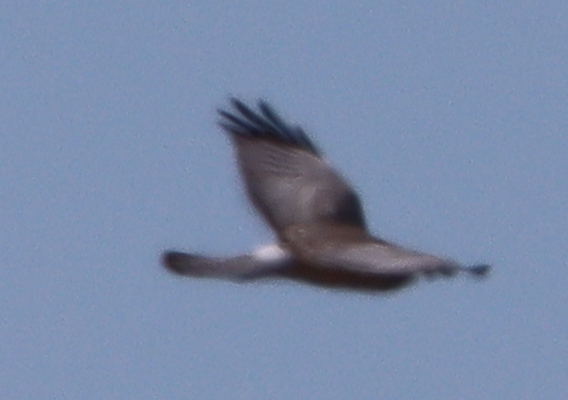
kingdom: Animalia
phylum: Chordata
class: Aves
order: Accipitriformes
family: Accipitridae
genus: Circus
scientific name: Circus cyaneus
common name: Hen harrier
